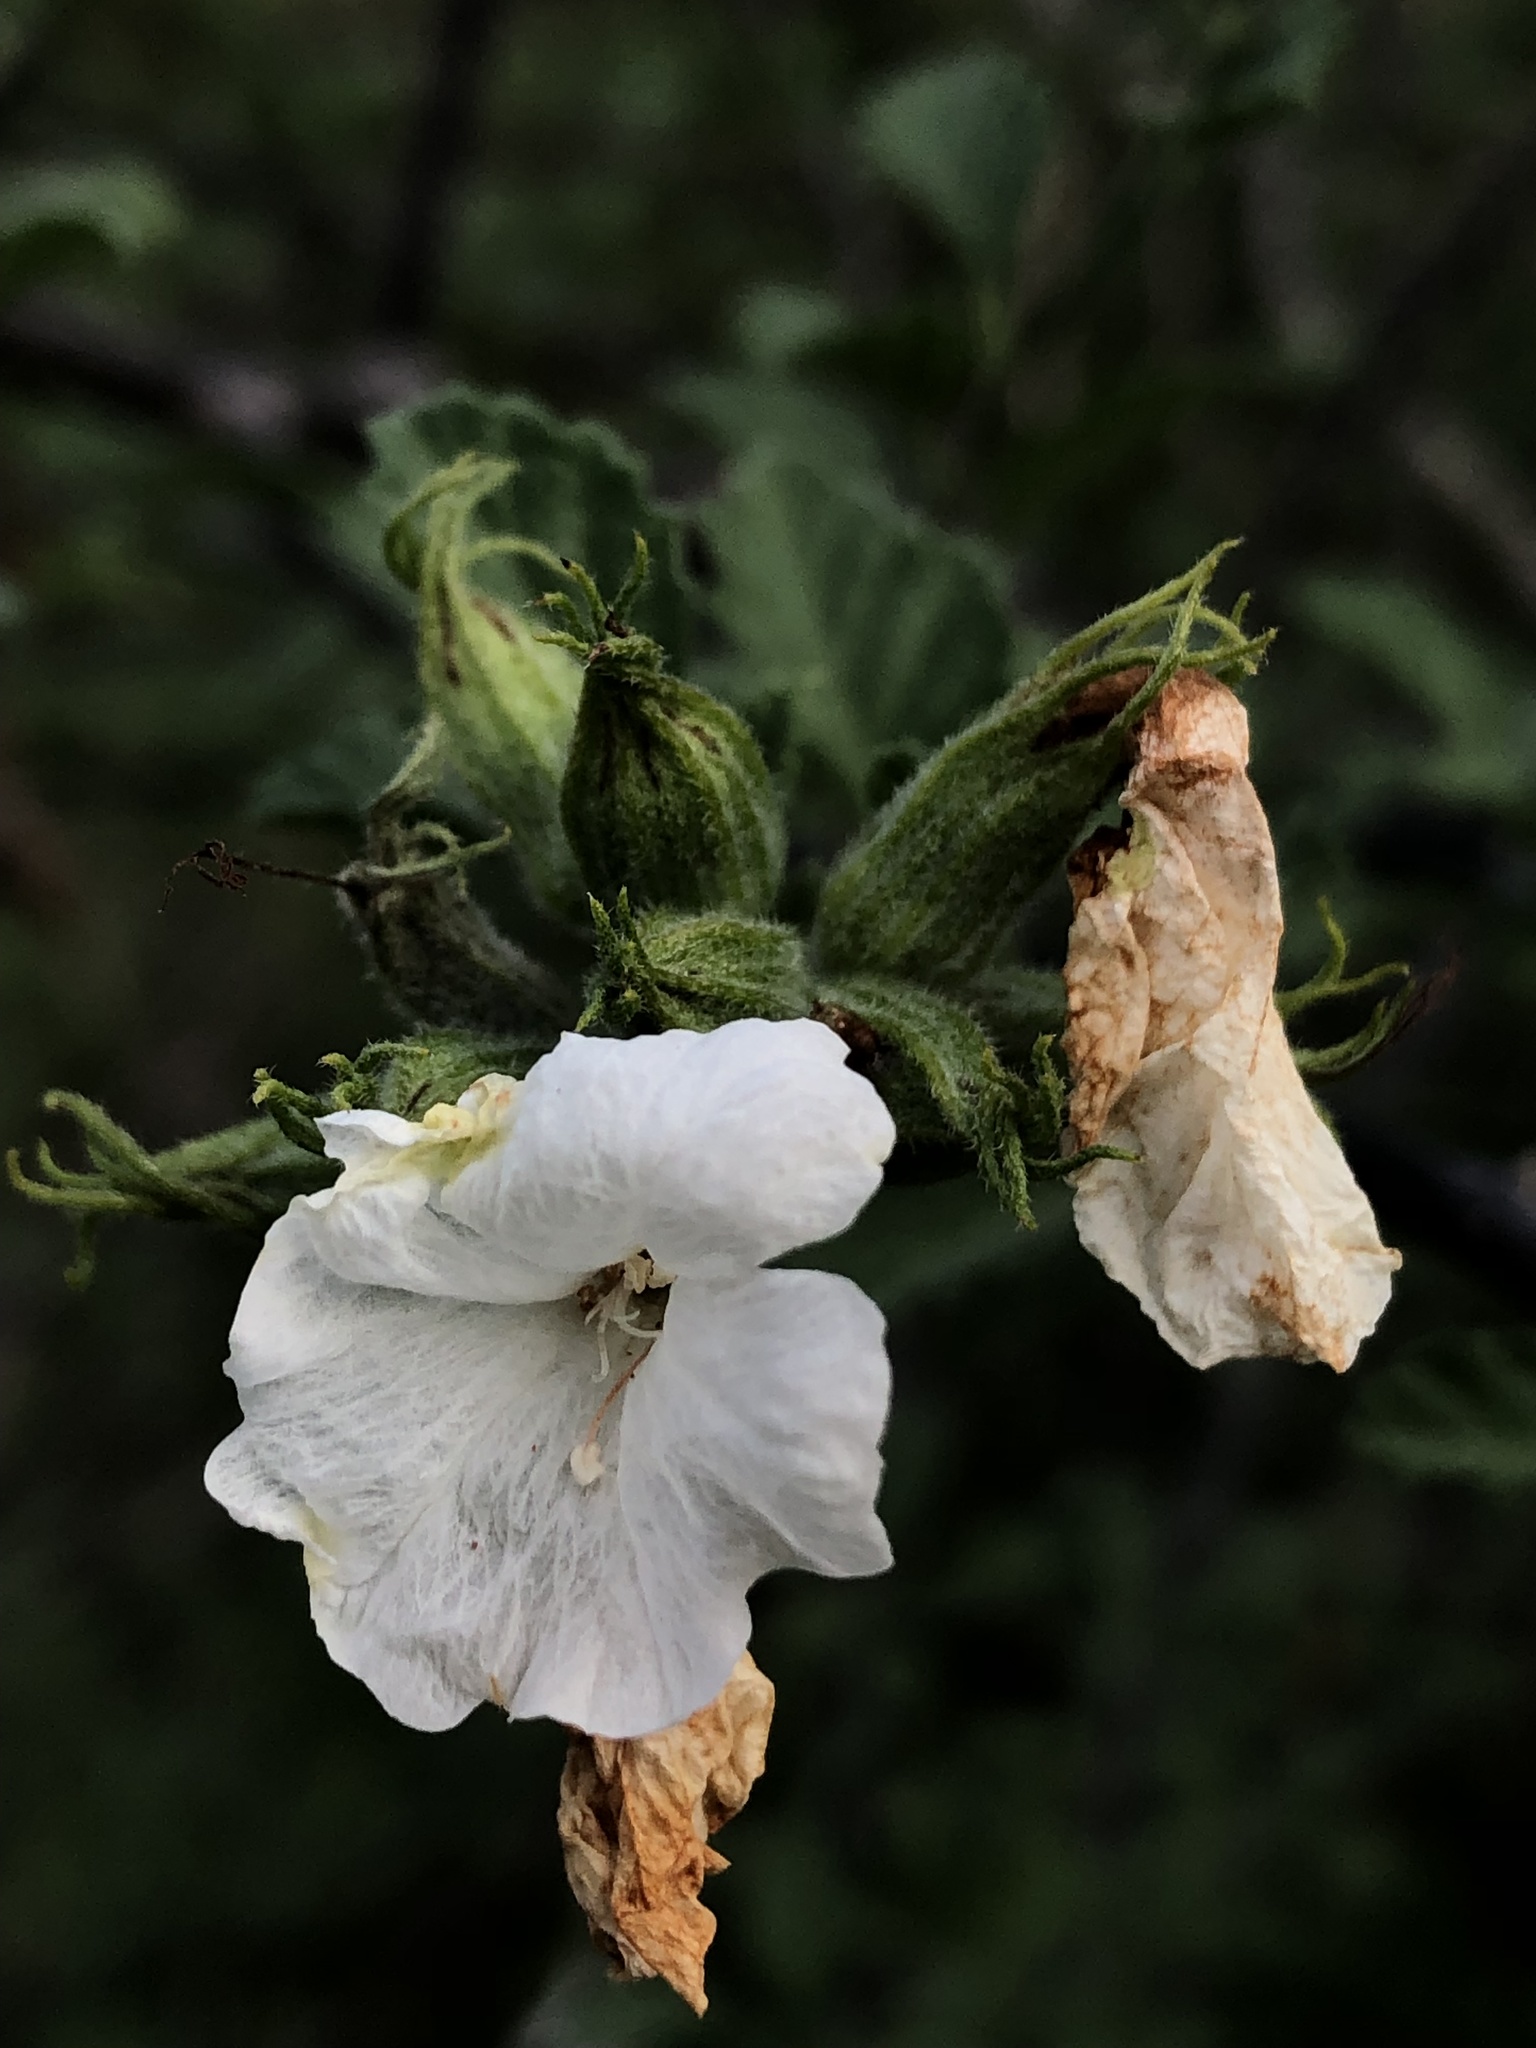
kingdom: Plantae
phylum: Tracheophyta
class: Magnoliopsida
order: Boraginales
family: Cordiaceae
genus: Cordia
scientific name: Cordia parvifolia
